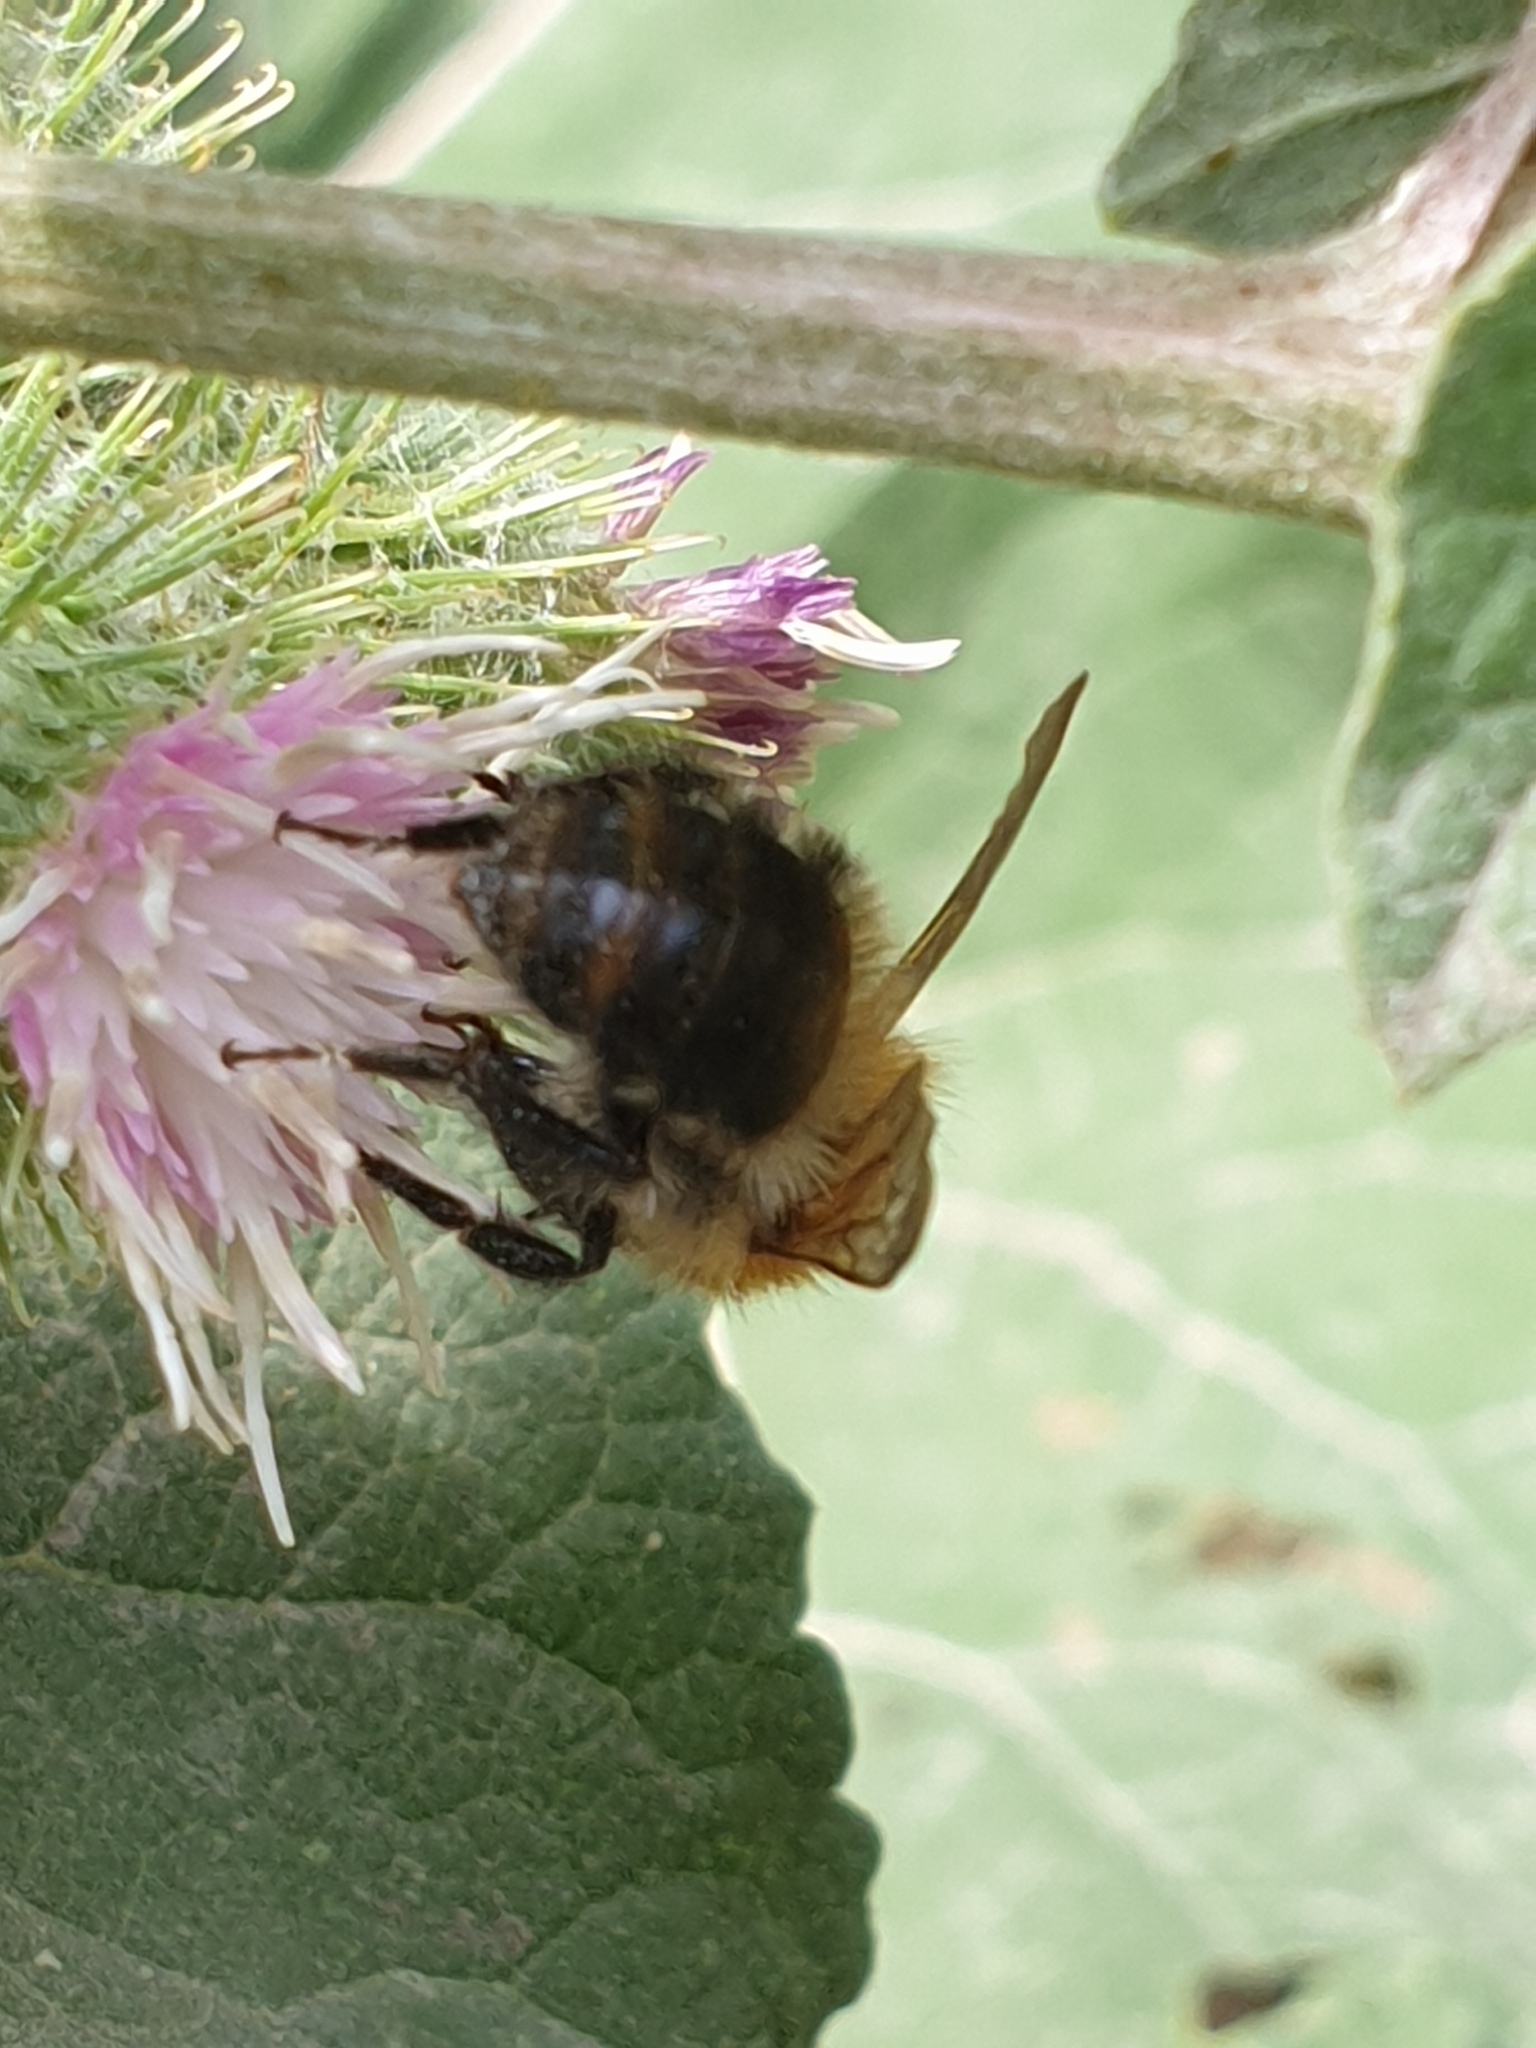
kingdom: Animalia
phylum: Arthropoda
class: Insecta
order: Hymenoptera
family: Apidae
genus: Bombus
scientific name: Bombus pascuorum
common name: Common carder bee
